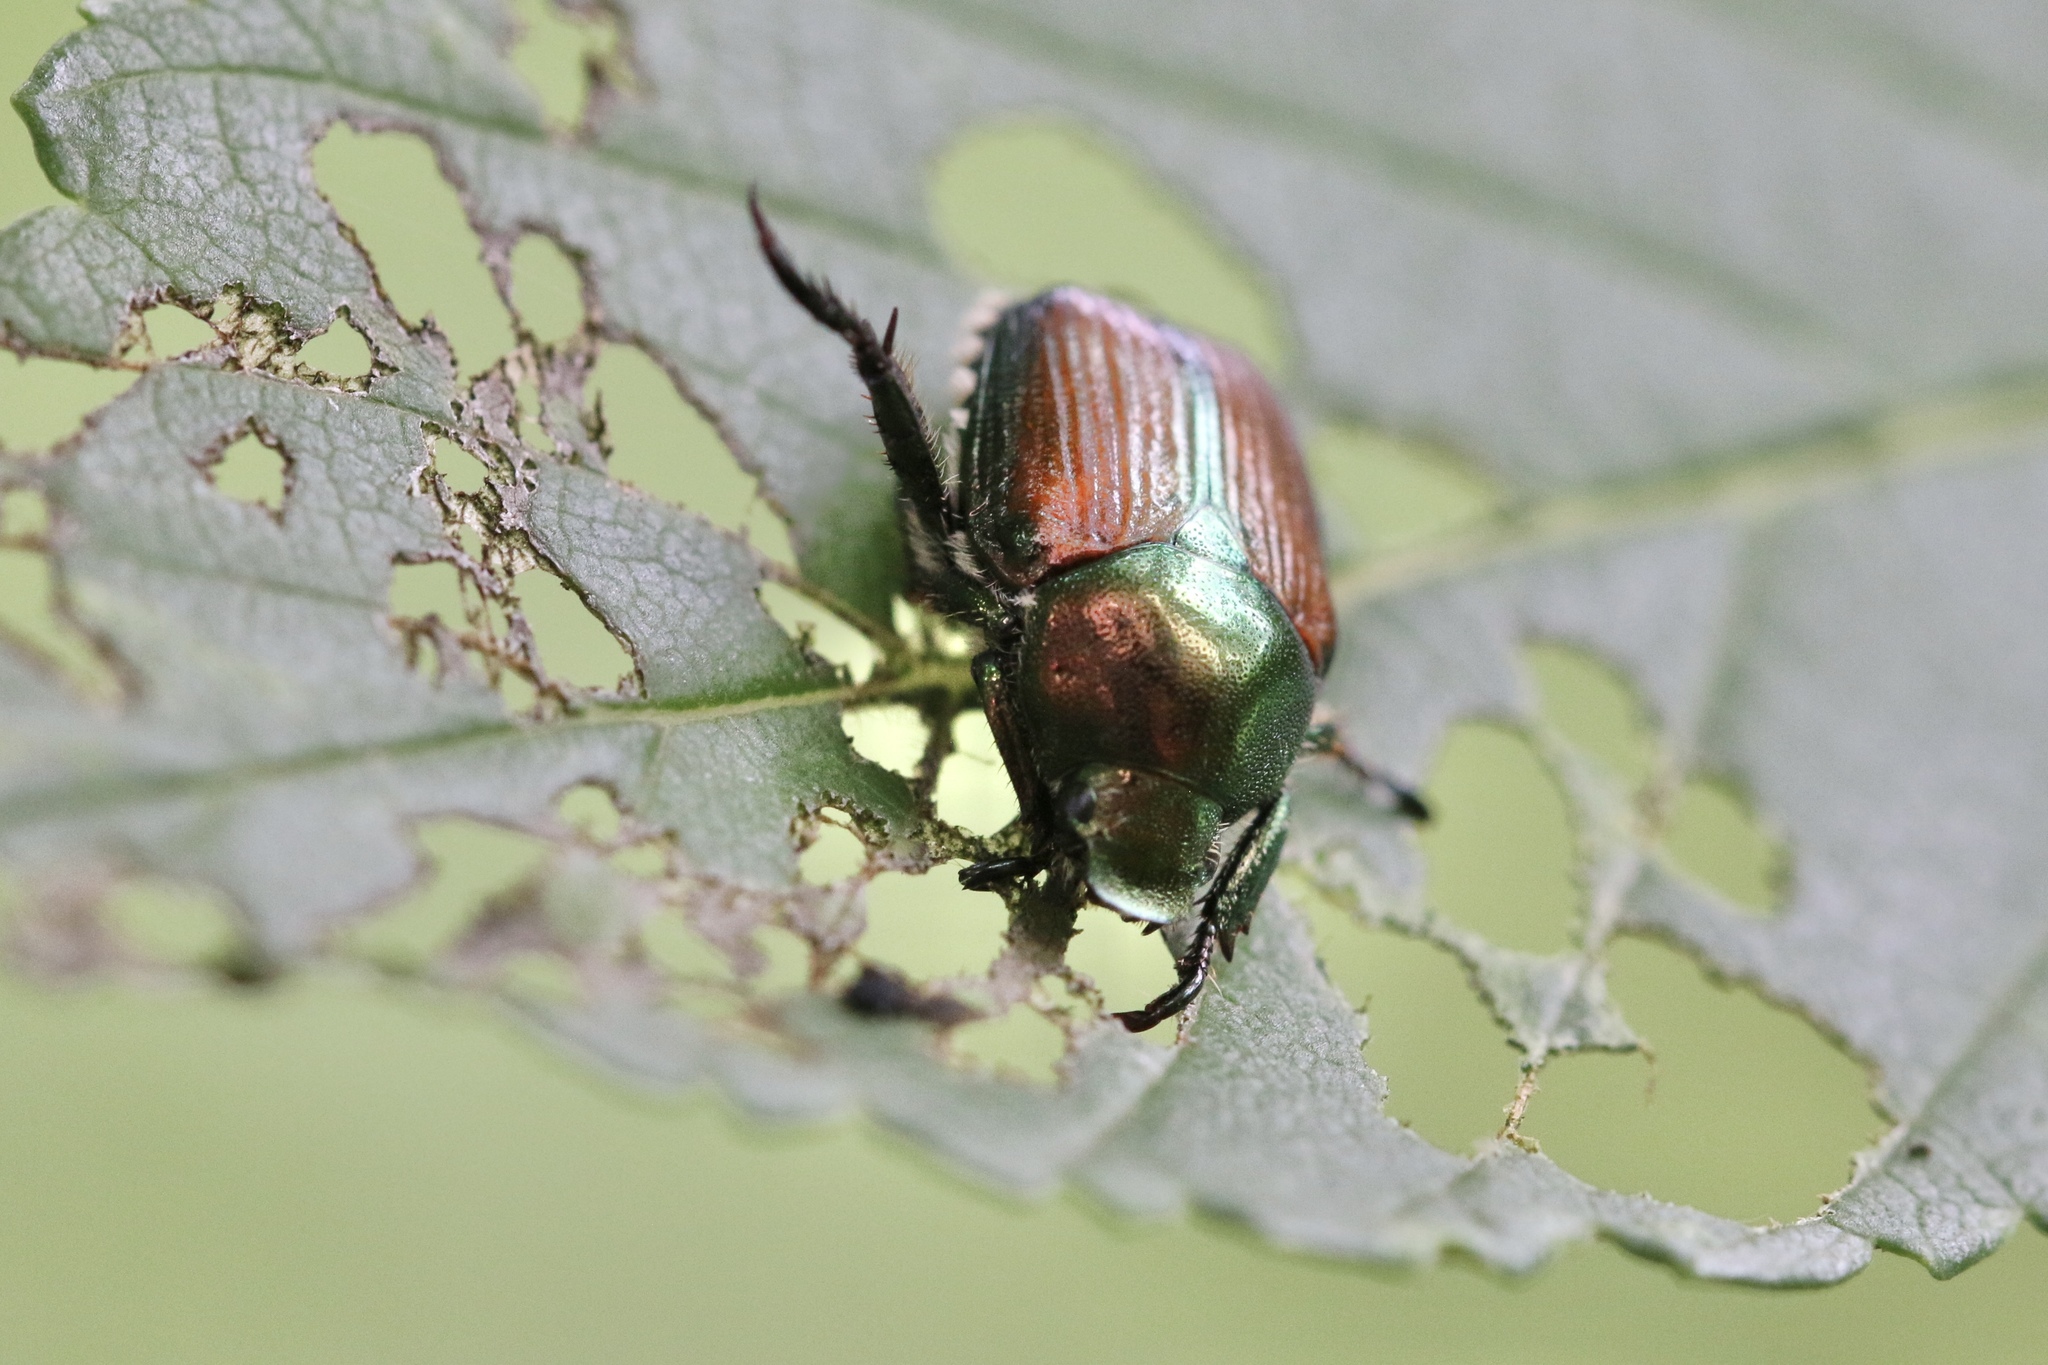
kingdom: Animalia
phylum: Arthropoda
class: Insecta
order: Coleoptera
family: Scarabaeidae
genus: Popillia
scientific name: Popillia japonica
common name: Japanese beetle
